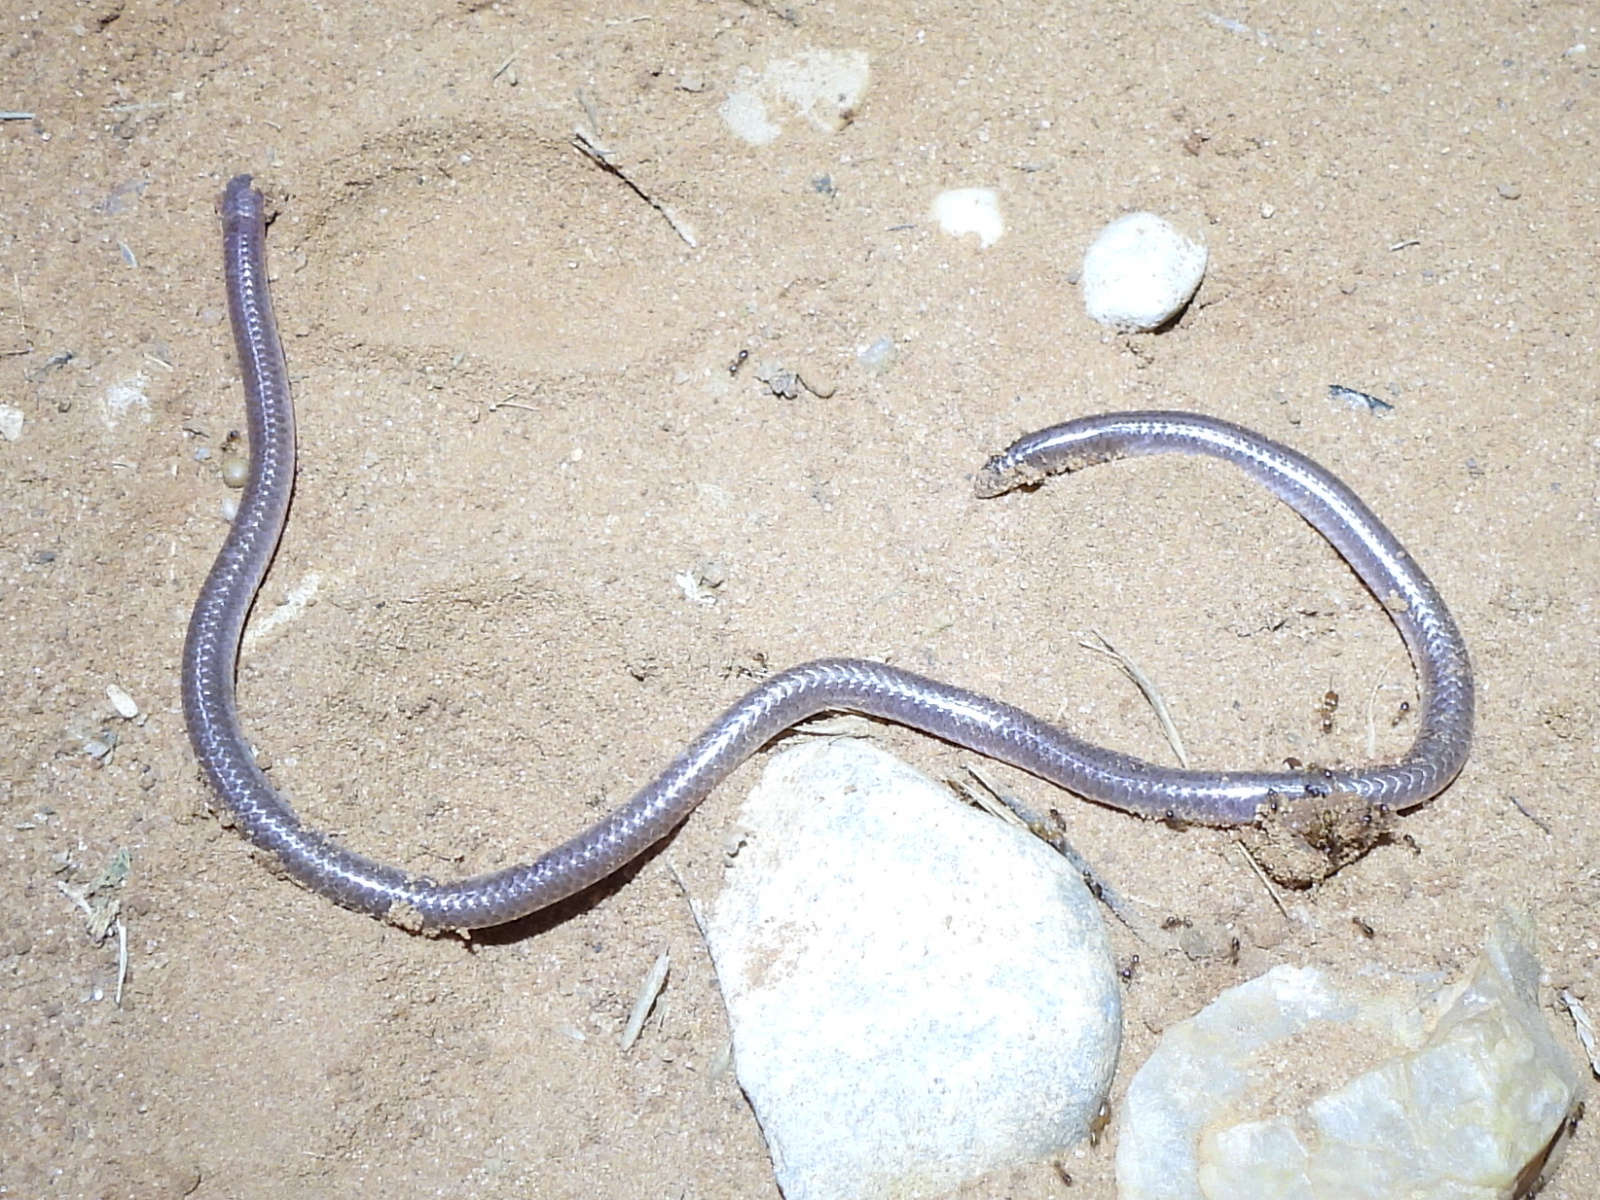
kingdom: Animalia
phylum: Chordata
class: Squamata
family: Leptotyphlopidae
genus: Rena
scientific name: Rena dulcis
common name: Texas blind snake
